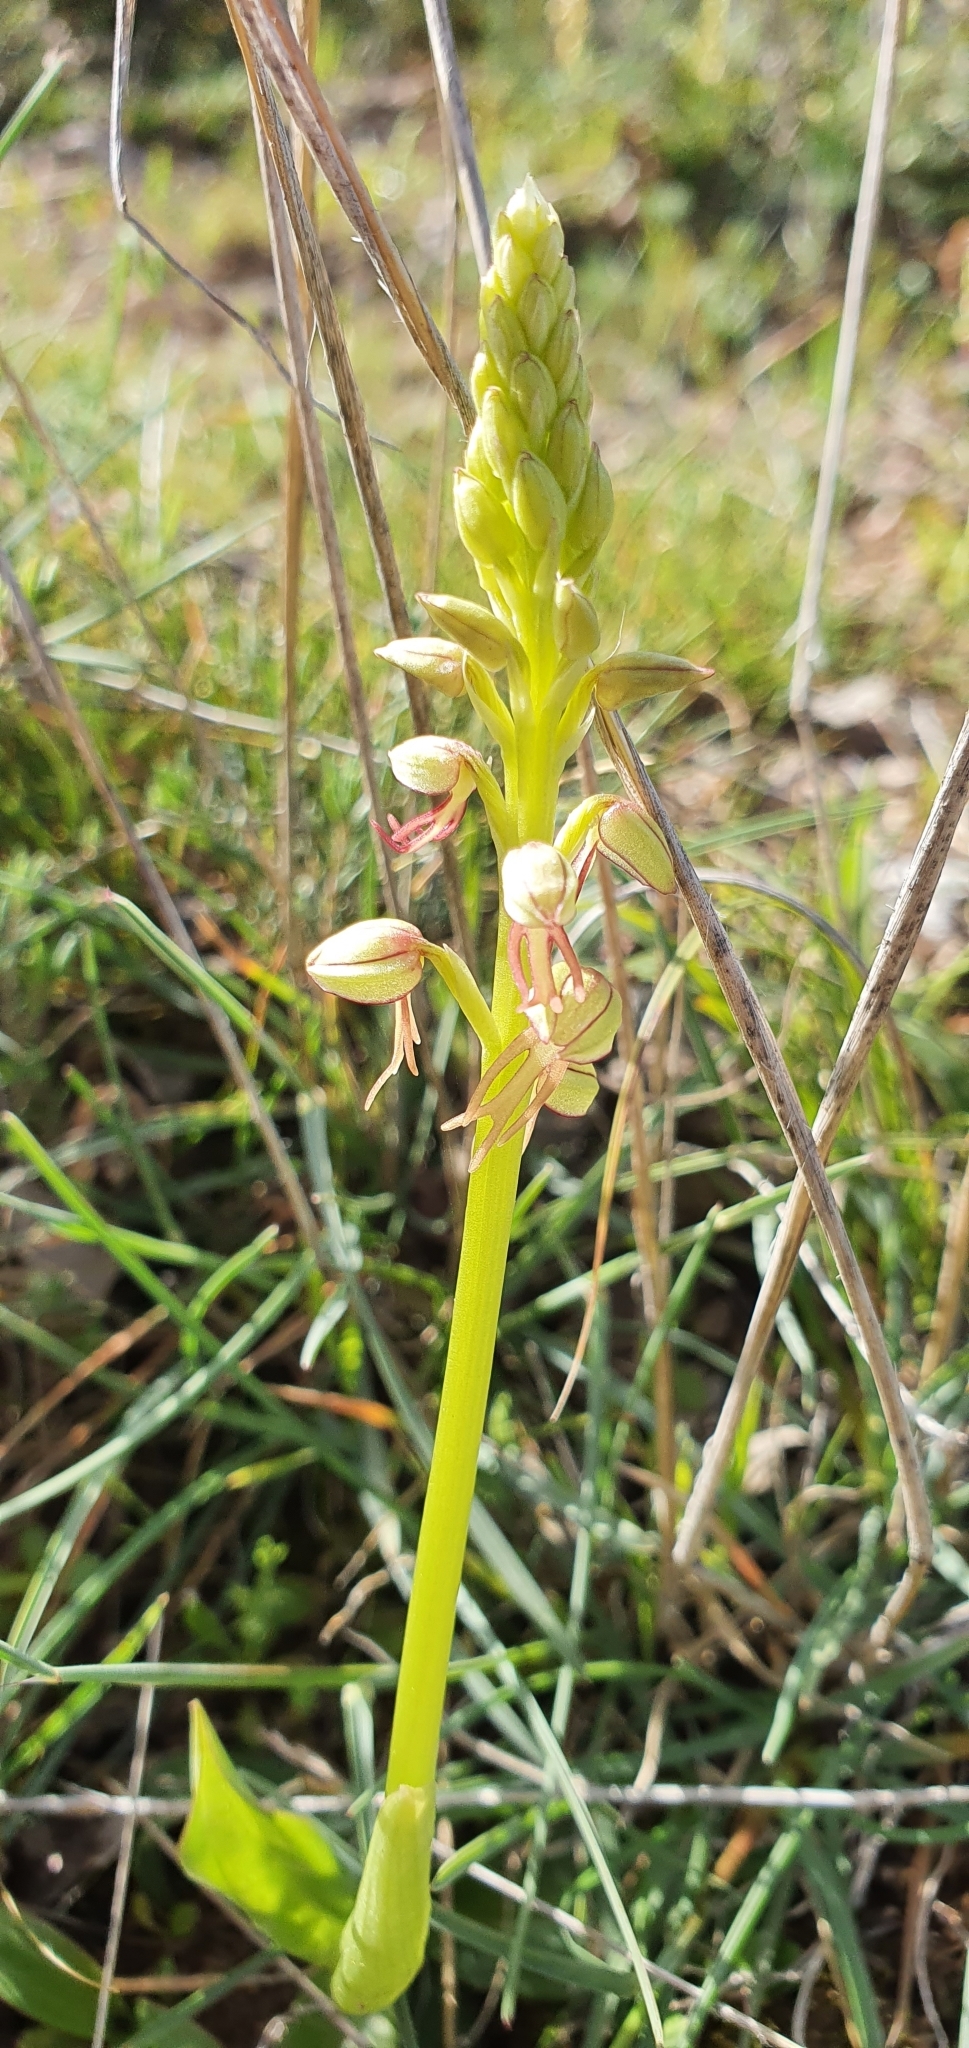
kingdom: Plantae
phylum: Tracheophyta
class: Liliopsida
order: Asparagales
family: Orchidaceae
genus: Orchis
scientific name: Orchis anthropophora
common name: Man orchid
